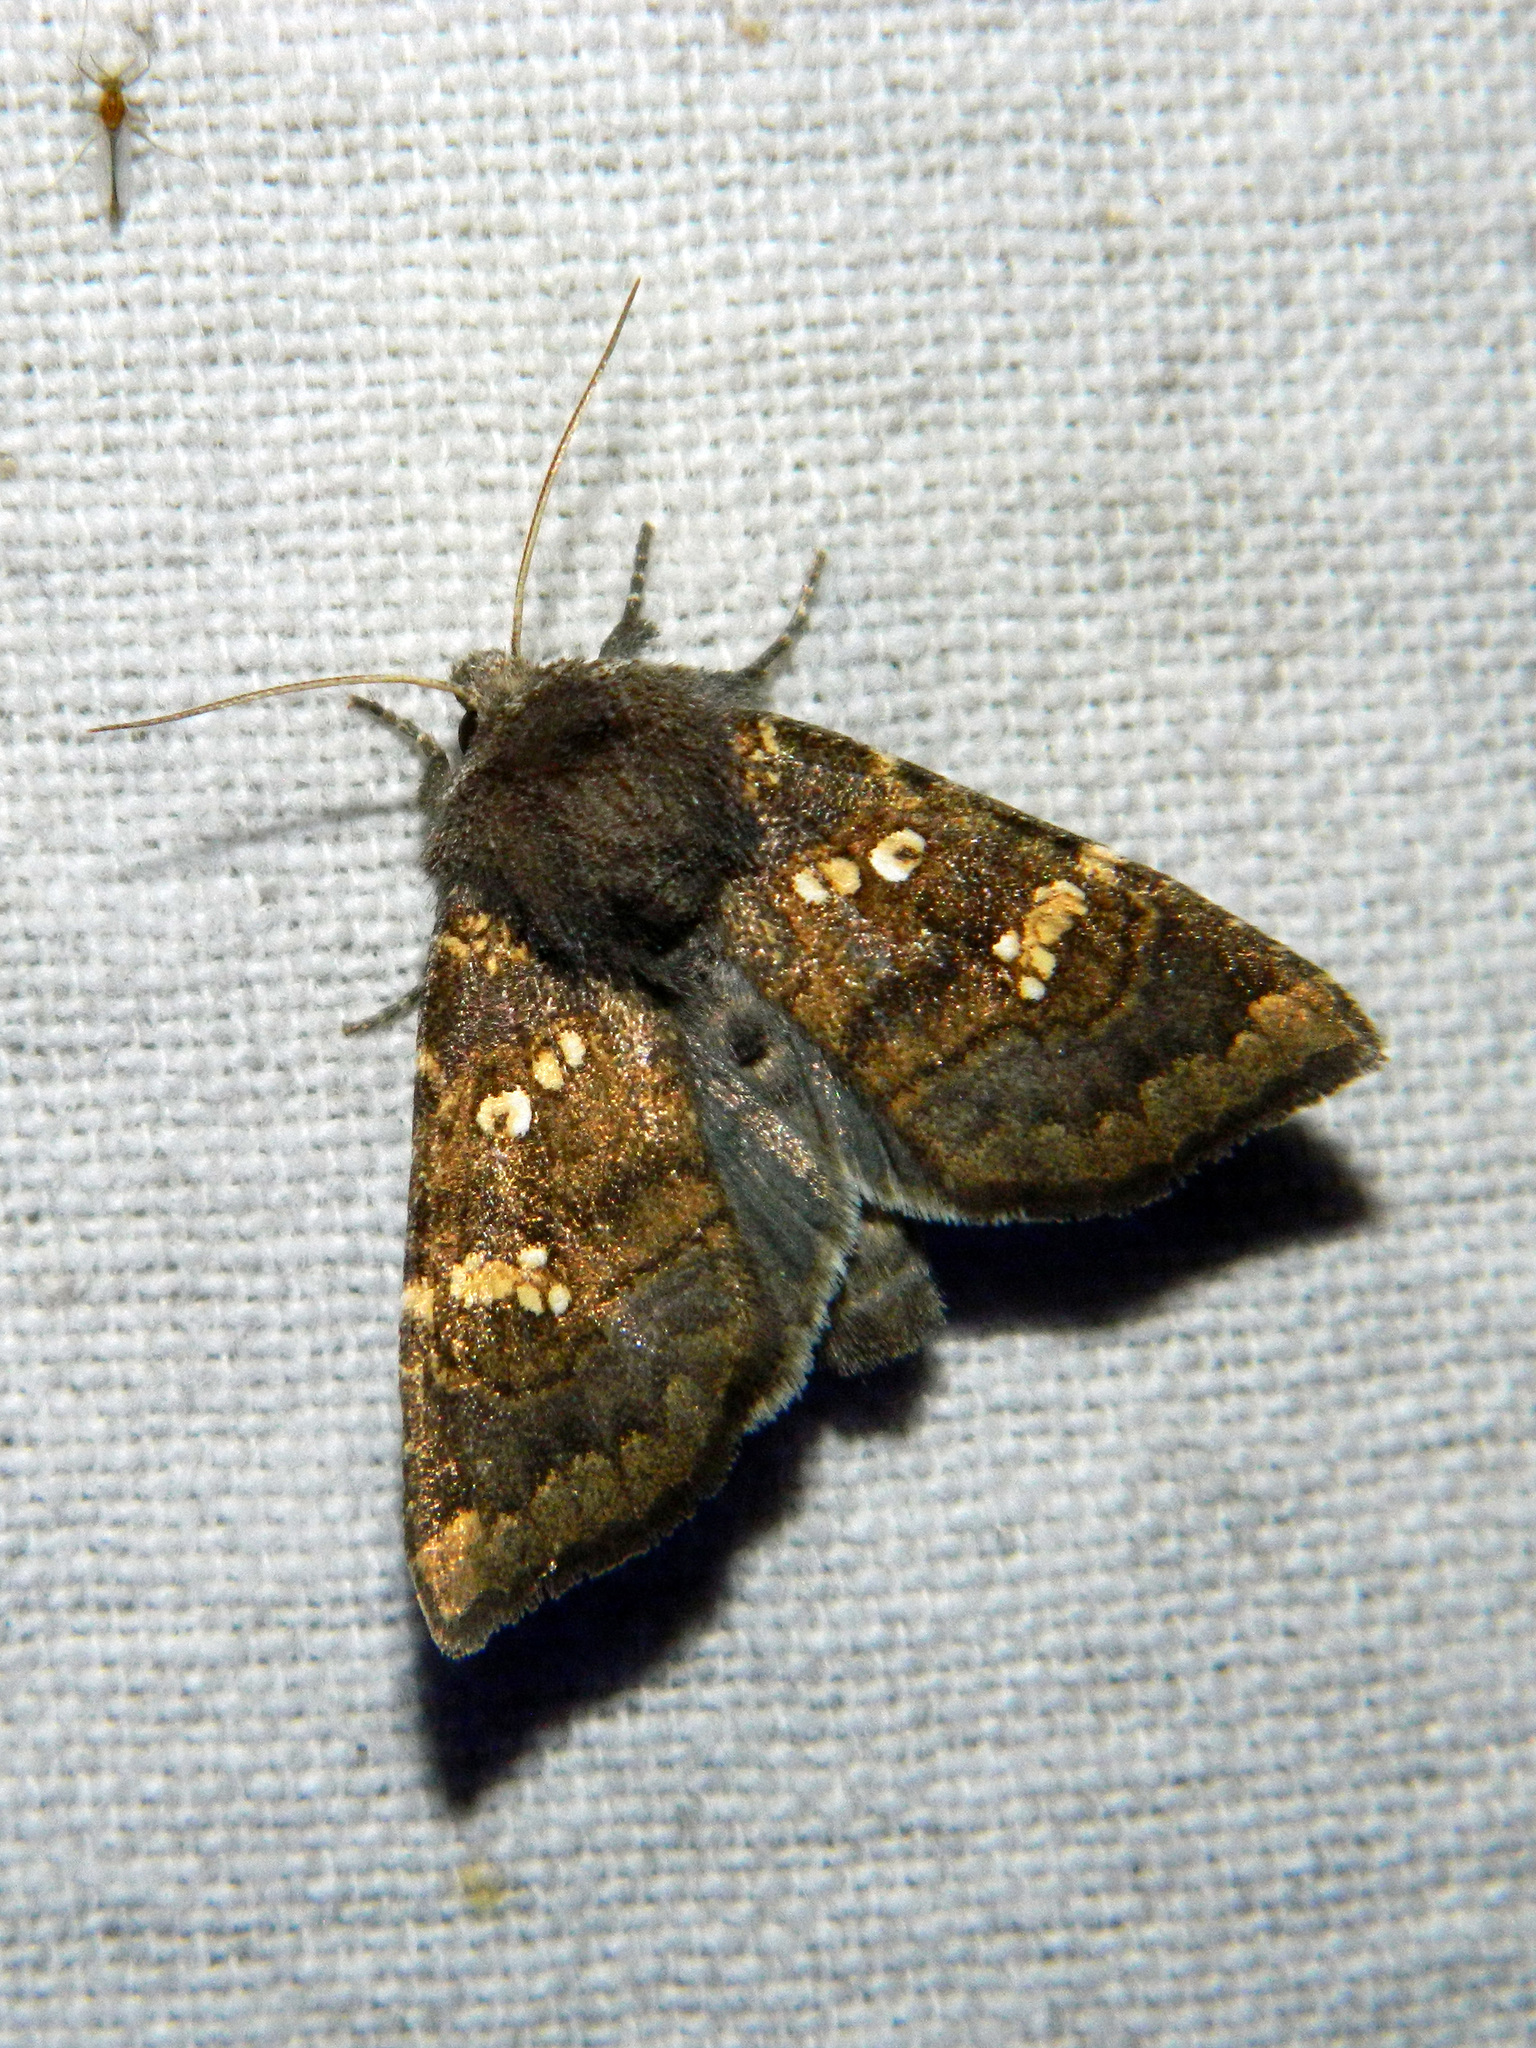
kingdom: Animalia
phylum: Arthropoda
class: Insecta
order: Lepidoptera
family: Noctuidae
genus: Papaipema
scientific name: Papaipema unimoda
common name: Meadow rue borer moth
